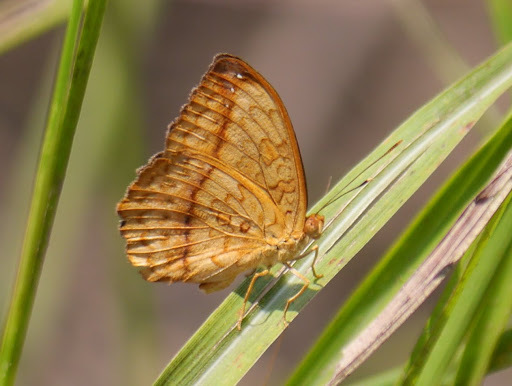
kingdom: Animalia
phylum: Arthropoda
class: Insecta
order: Lepidoptera
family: Nymphalidae
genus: Pseudacraea
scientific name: Pseudacraea Pseudargynnis hegemone
